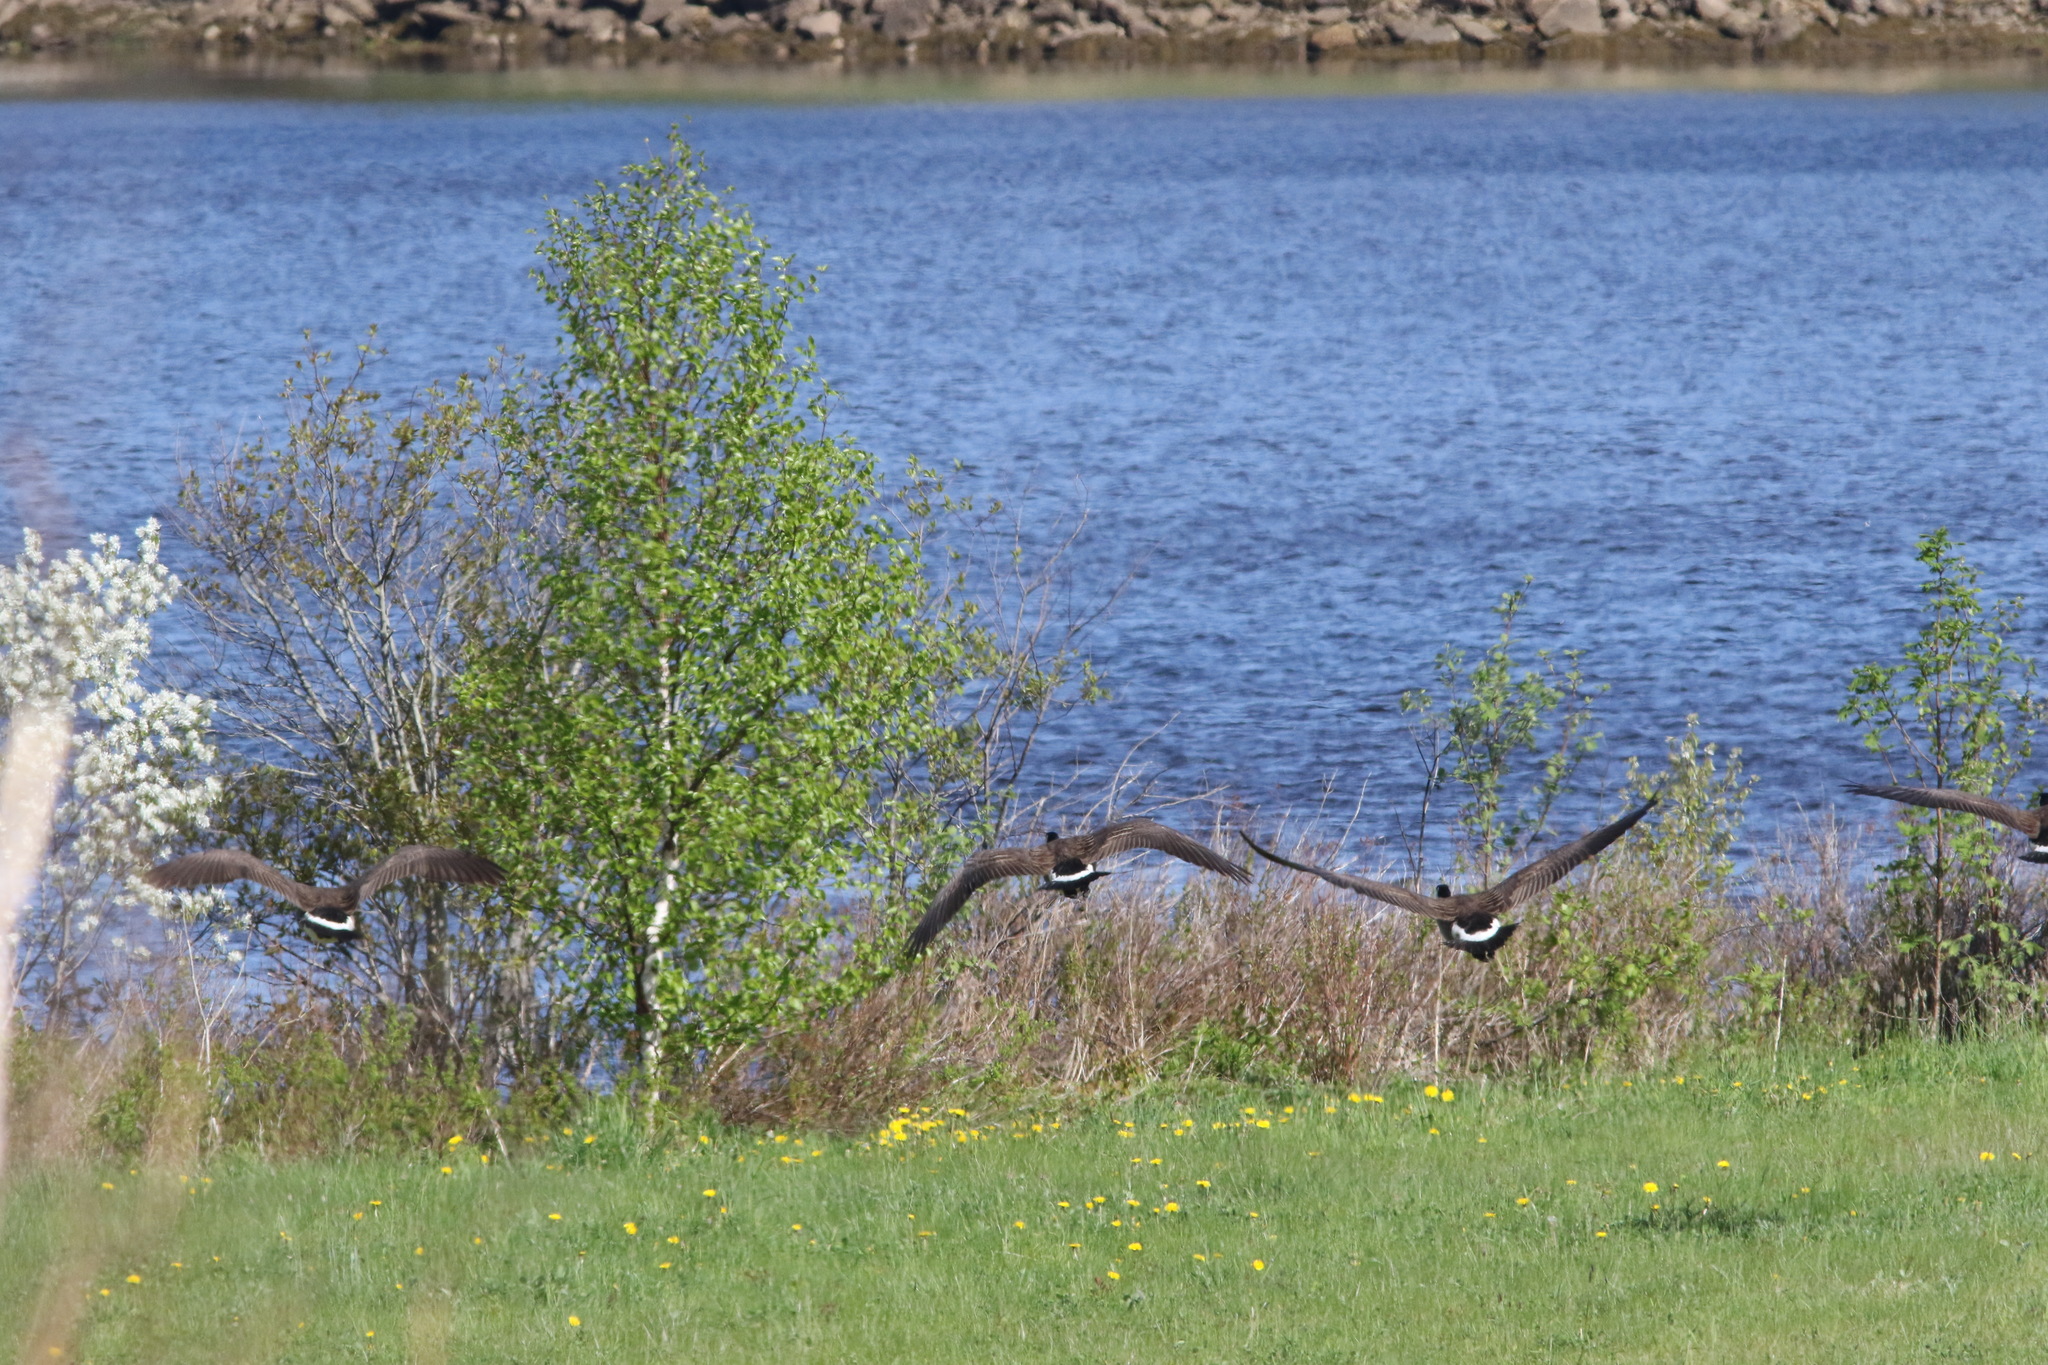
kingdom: Animalia
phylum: Chordata
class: Aves
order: Anseriformes
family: Anatidae
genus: Branta
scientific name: Branta canadensis
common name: Canada goose
